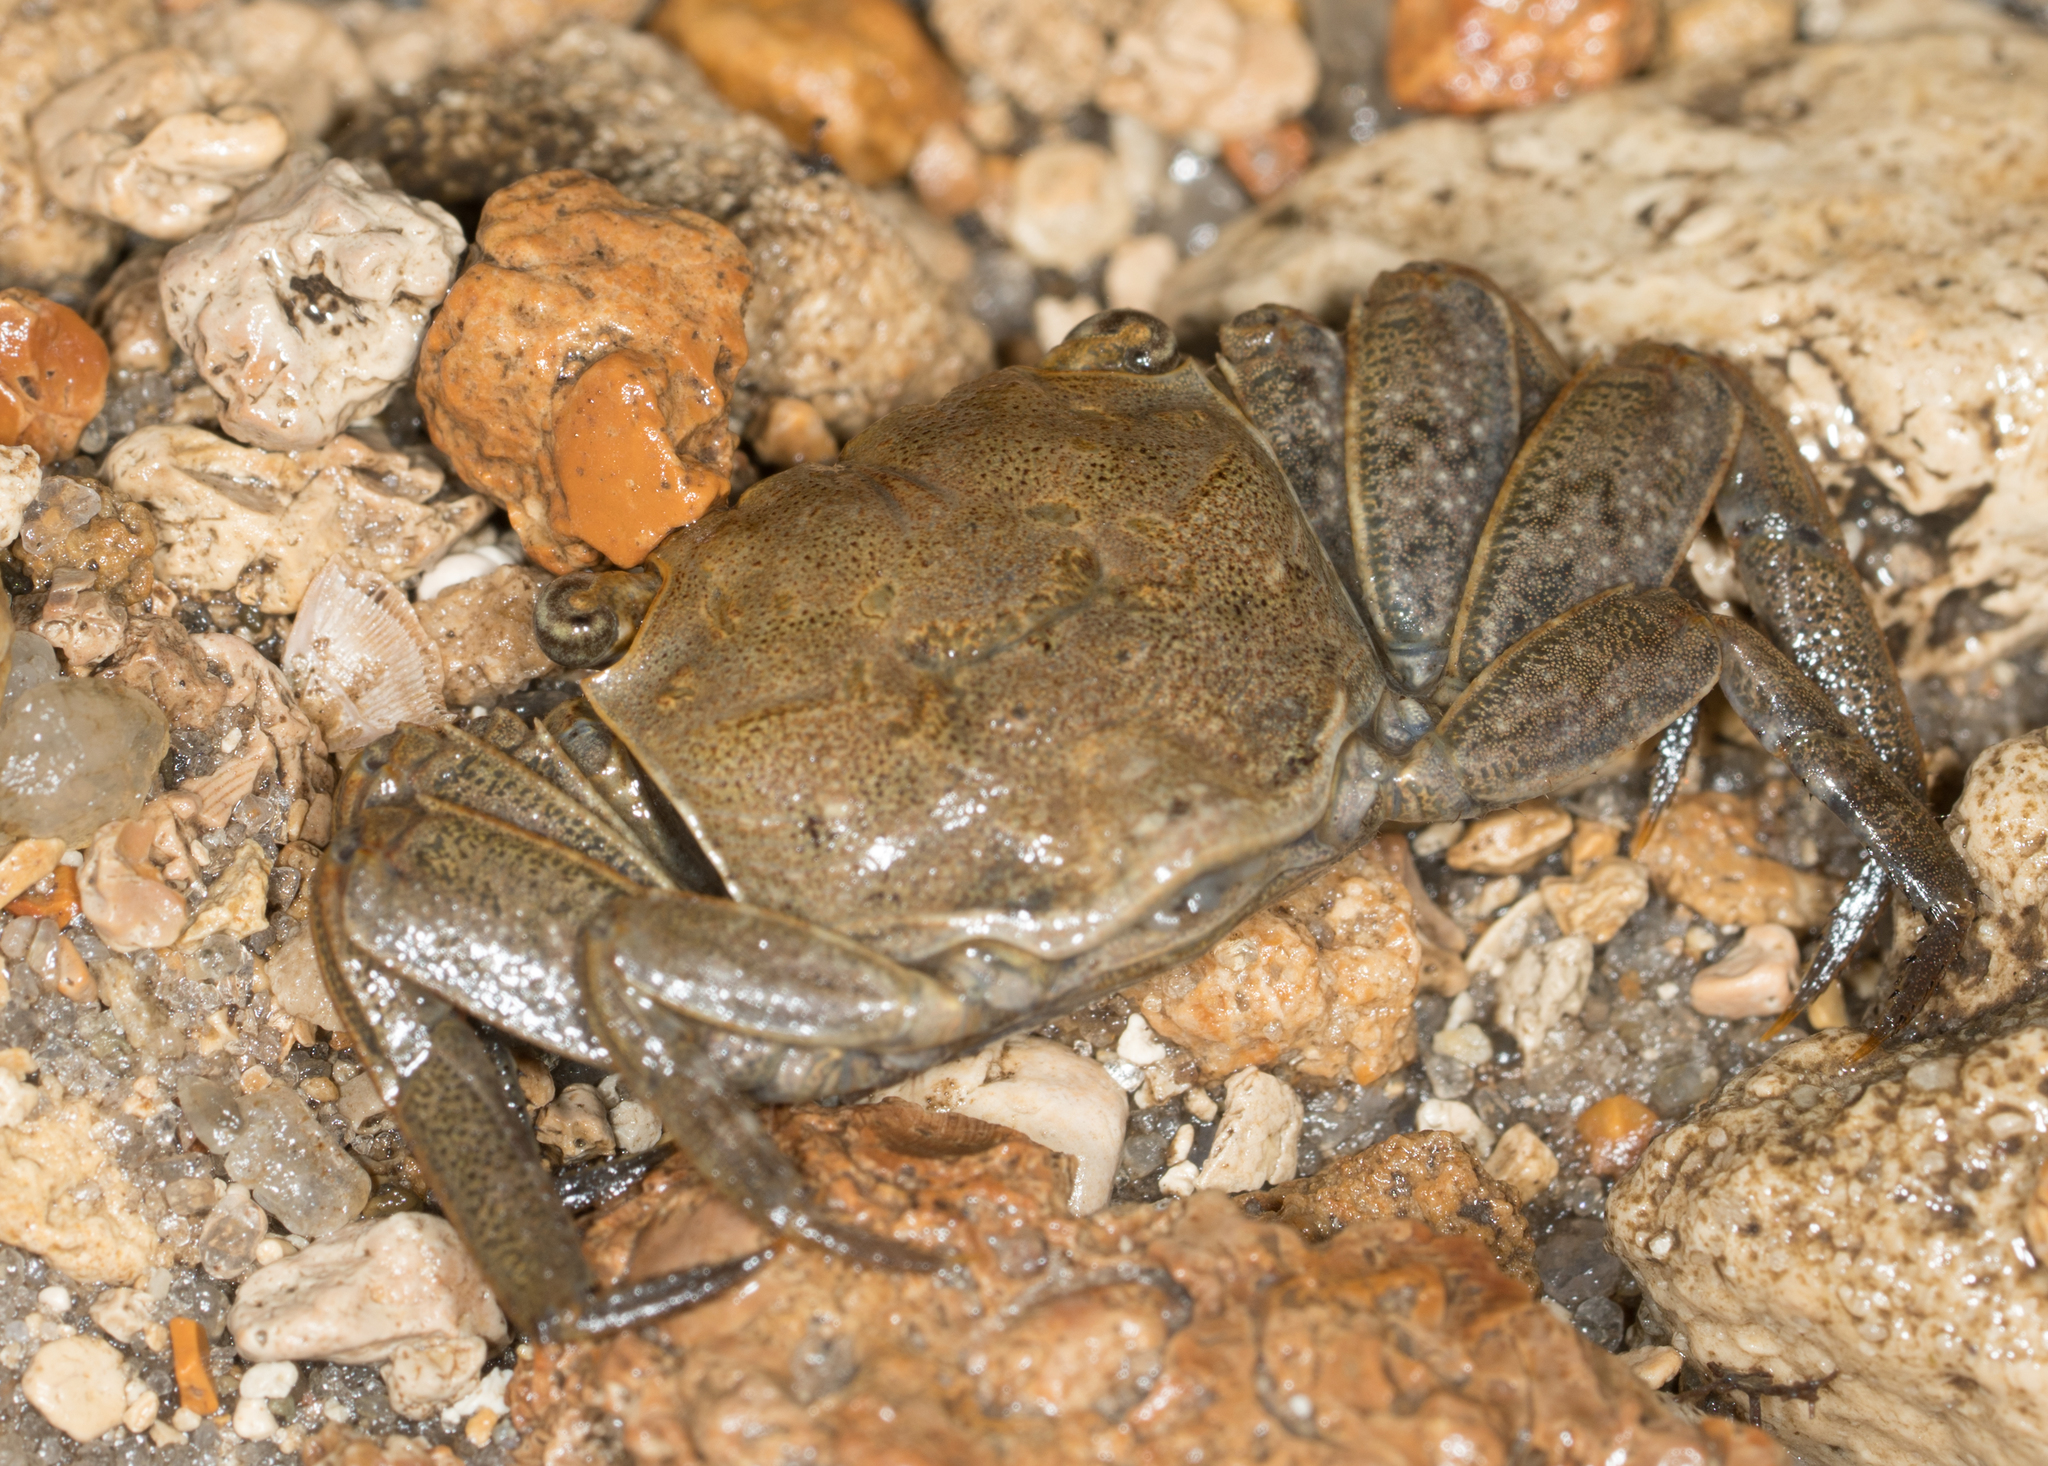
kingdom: Animalia
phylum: Arthropoda
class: Malacostraca
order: Decapoda
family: Sesarmidae
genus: Armases
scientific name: Armases cinereum
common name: Squareback marsh crab
